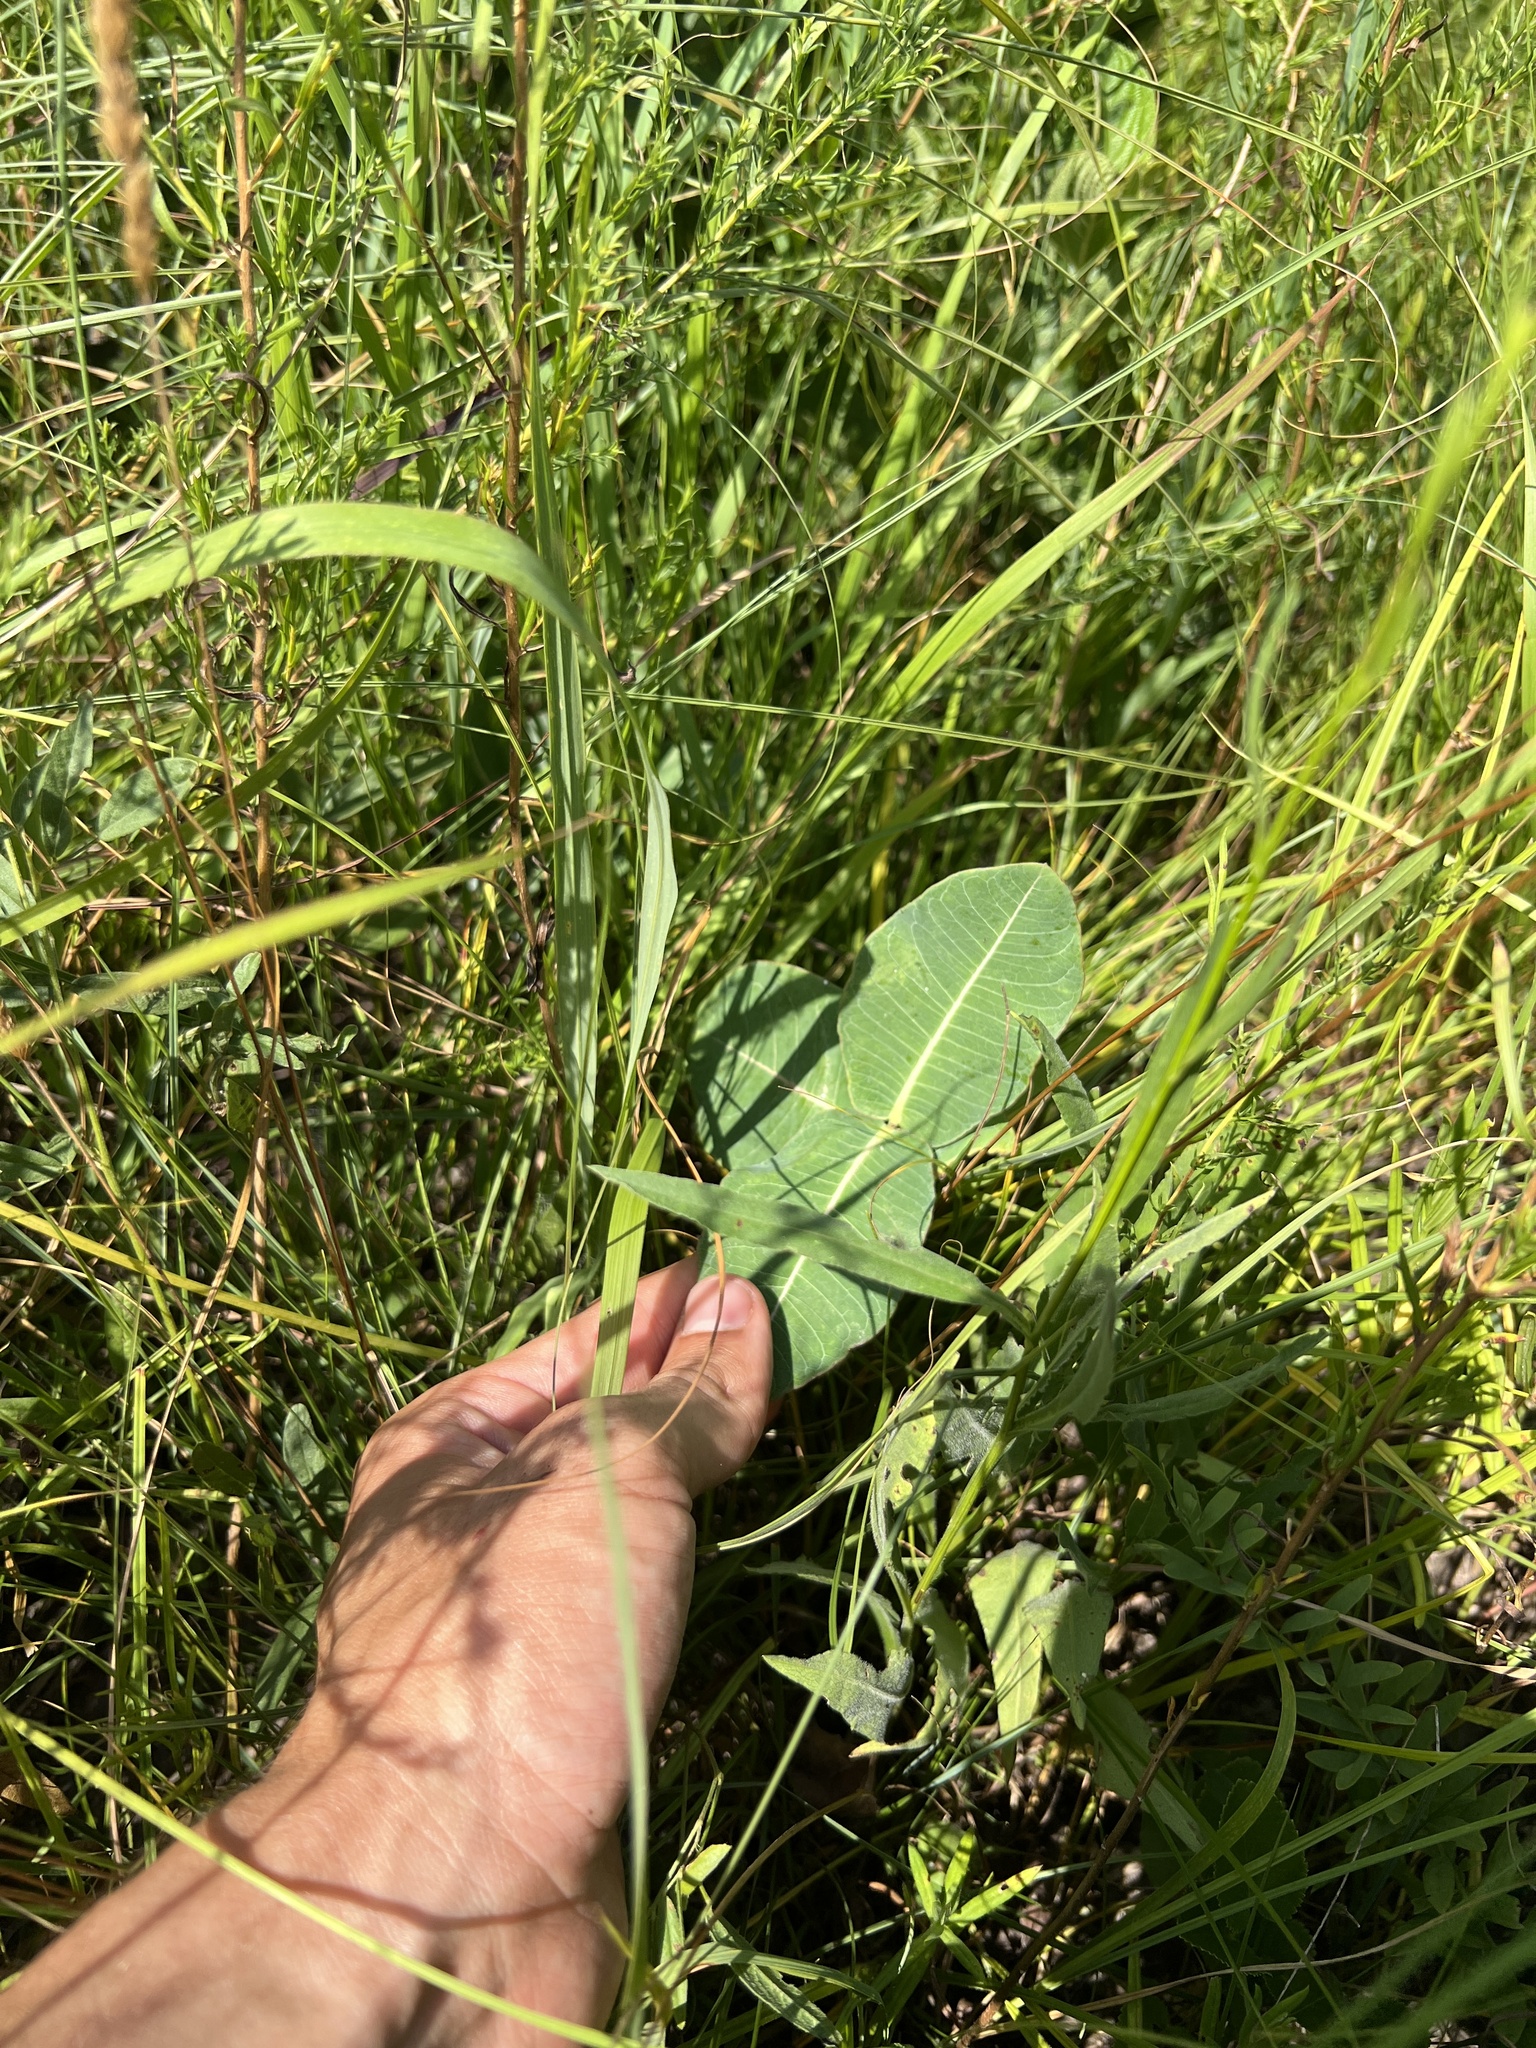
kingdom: Plantae
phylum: Tracheophyta
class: Magnoliopsida
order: Gentianales
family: Apocynaceae
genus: Asclepias
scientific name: Asclepias amplexicaulis
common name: Blunt-leaf milkweed
